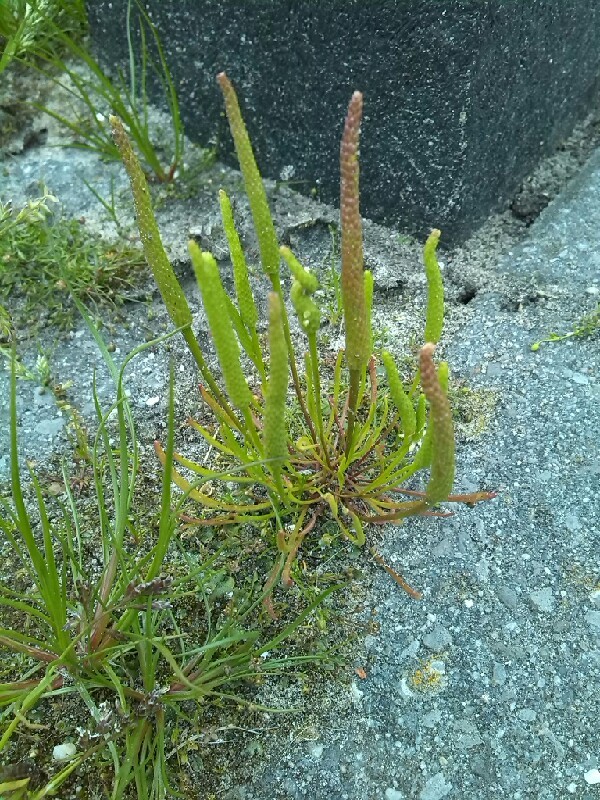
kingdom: Plantae
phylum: Tracheophyta
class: Magnoliopsida
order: Ranunculales
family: Ranunculaceae
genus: Myosurus
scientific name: Myosurus minimus
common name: Mousetail
